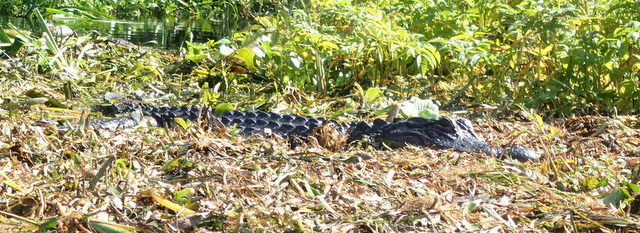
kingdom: Animalia
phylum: Chordata
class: Crocodylia
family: Alligatoridae
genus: Alligator
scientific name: Alligator mississippiensis
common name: American alligator
